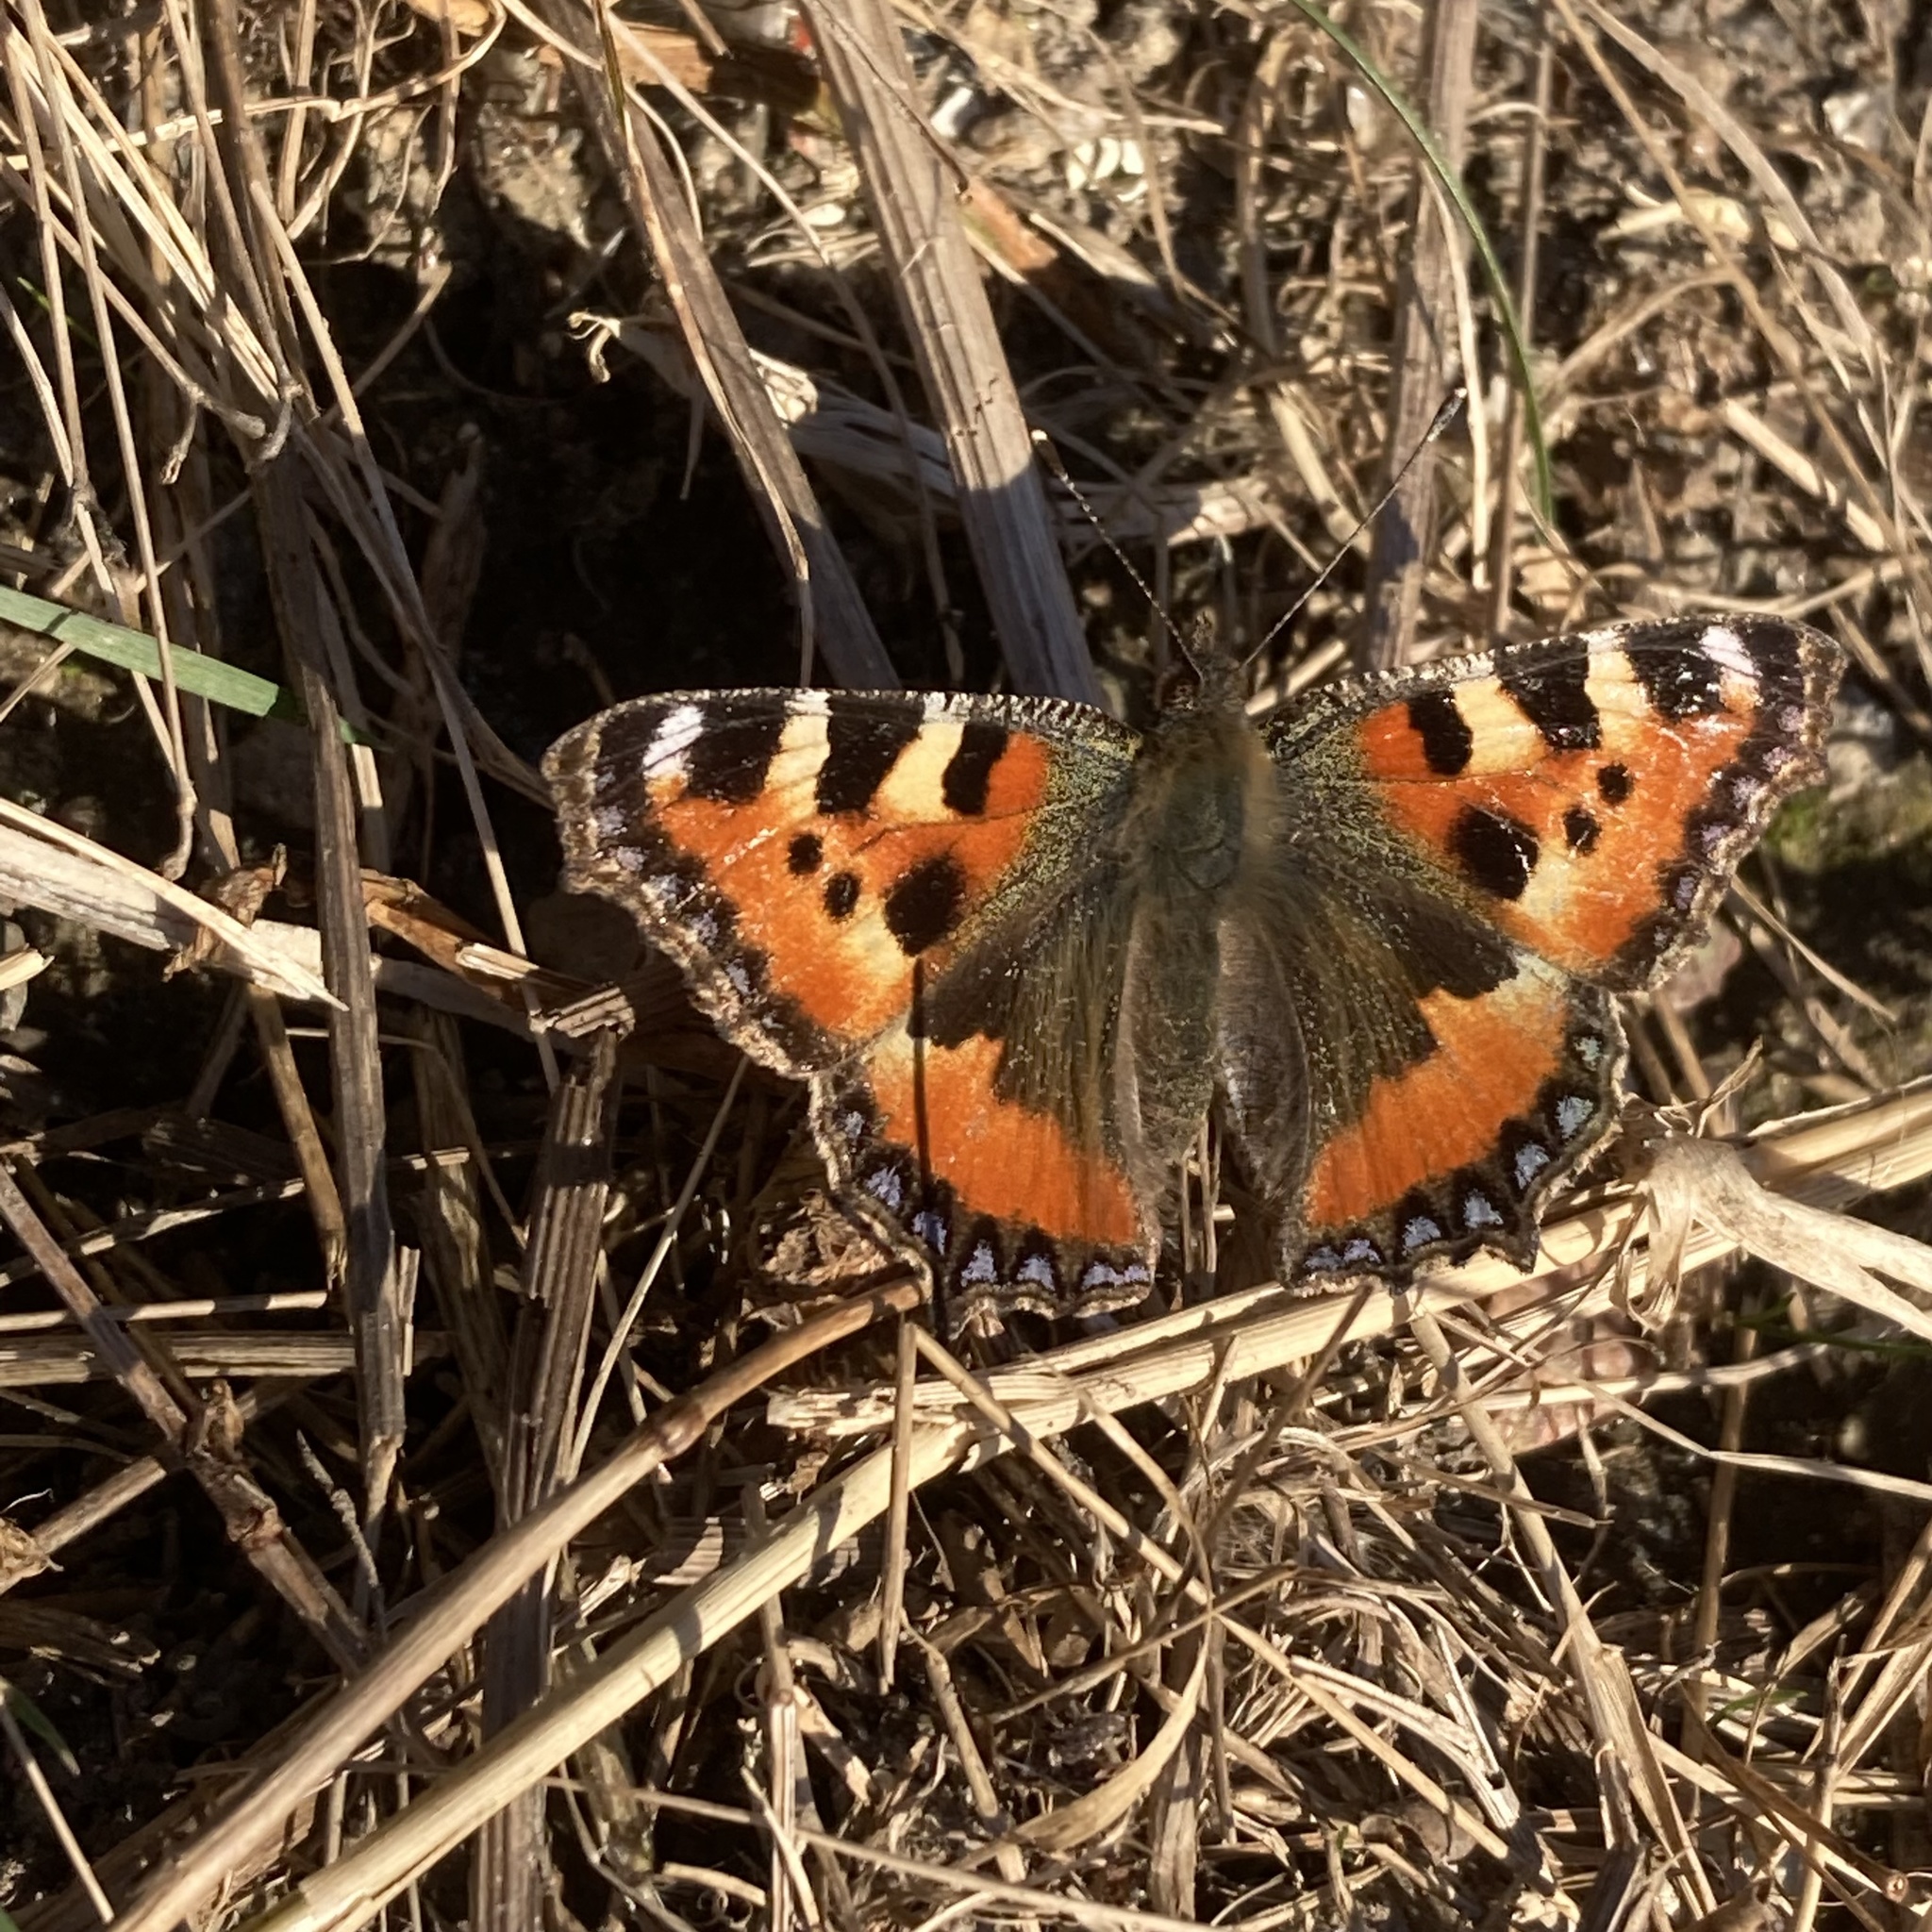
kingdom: Animalia
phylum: Arthropoda
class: Insecta
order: Lepidoptera
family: Nymphalidae
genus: Aglais
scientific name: Aglais urticae
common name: Small tortoiseshell
